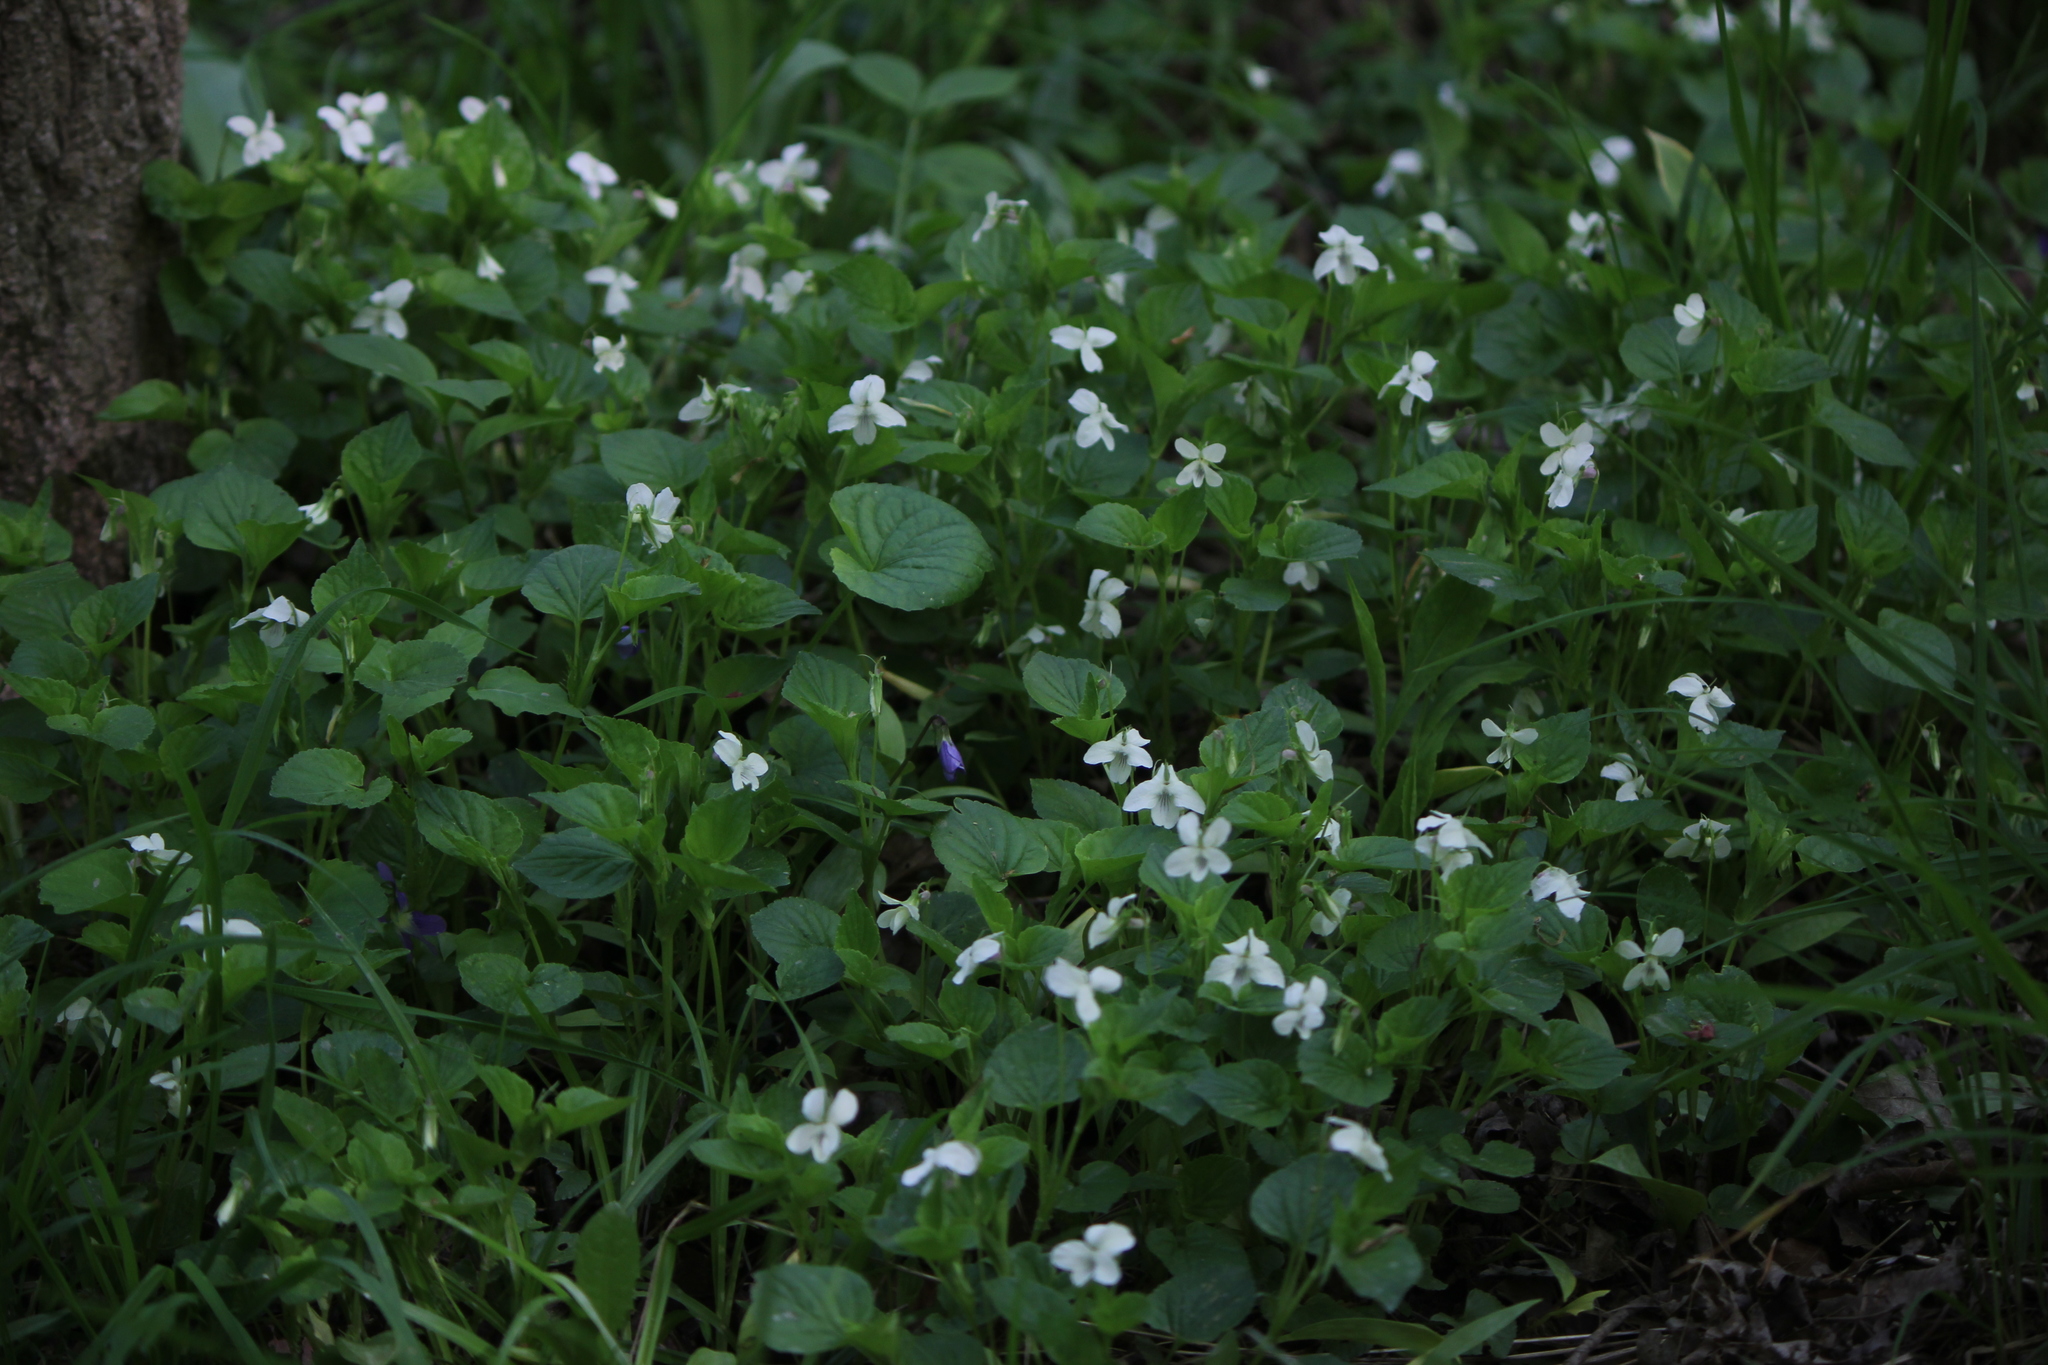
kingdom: Plantae
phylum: Tracheophyta
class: Magnoliopsida
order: Malpighiales
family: Violaceae
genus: Viola
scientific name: Viola striata
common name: Cream violet
